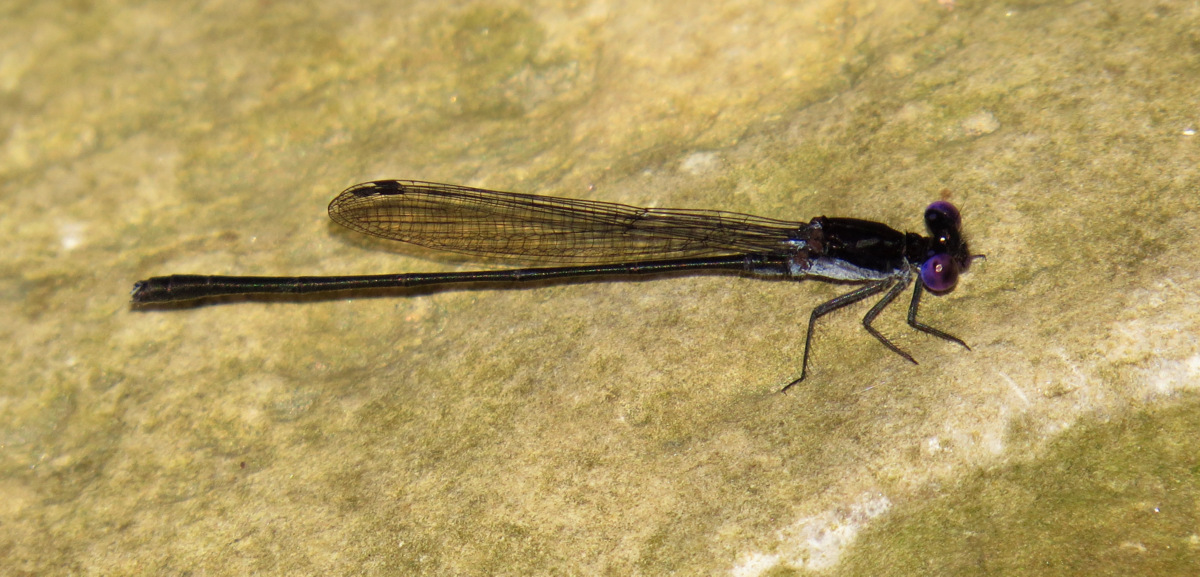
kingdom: Animalia
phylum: Arthropoda
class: Insecta
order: Odonata
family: Coenagrionidae
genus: Argia
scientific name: Argia translata
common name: Dusky dancer
